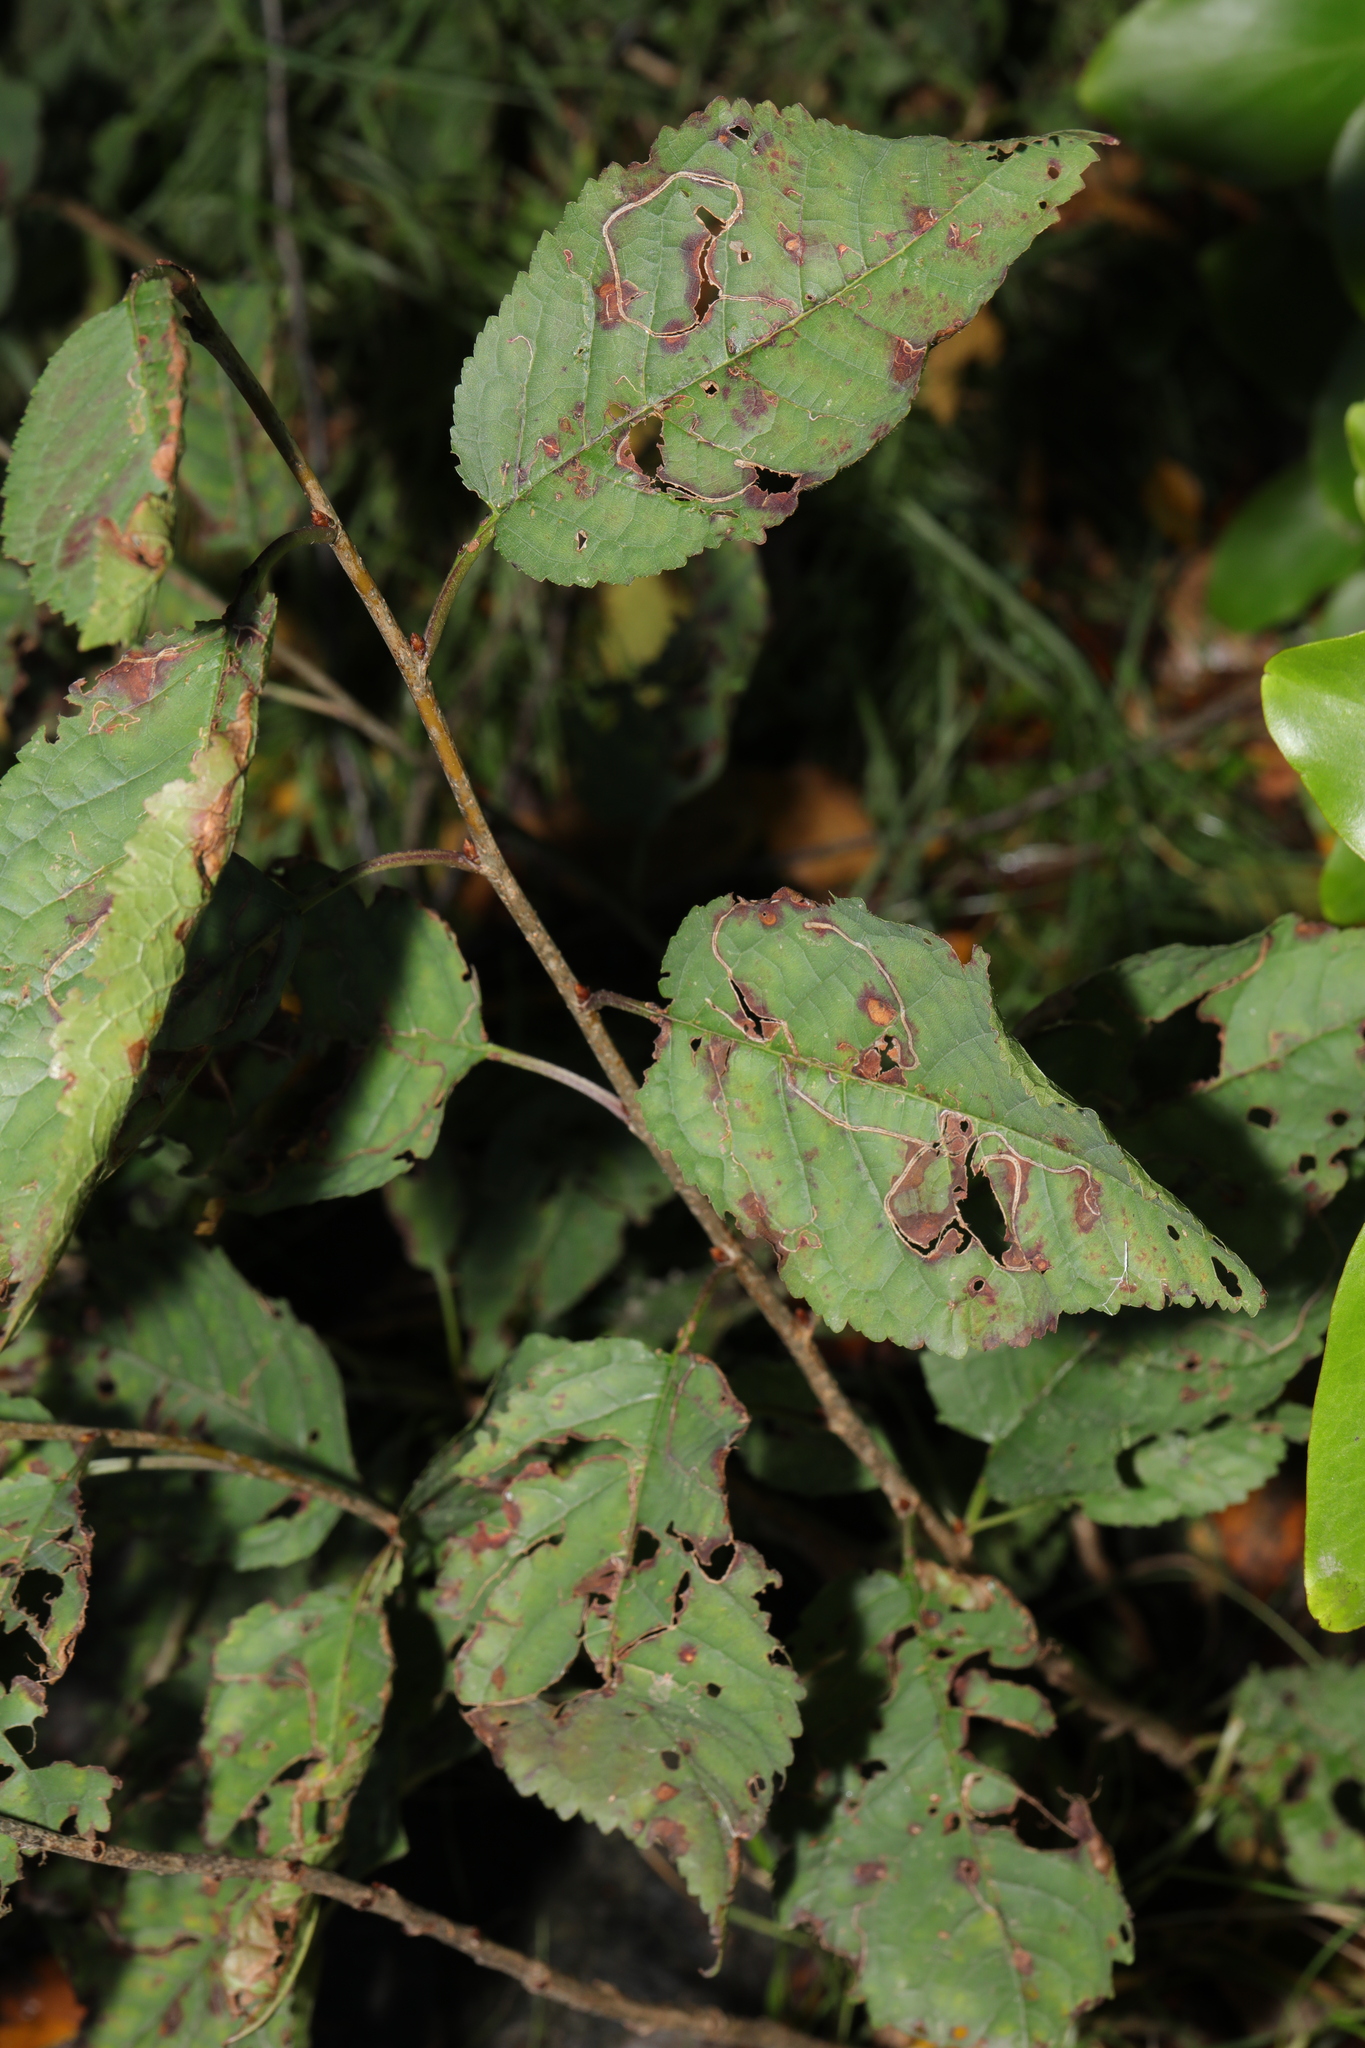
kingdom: Plantae
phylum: Tracheophyta
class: Magnoliopsida
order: Rosales
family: Rosaceae
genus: Prunus
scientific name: Prunus avium
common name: Sweet cherry
